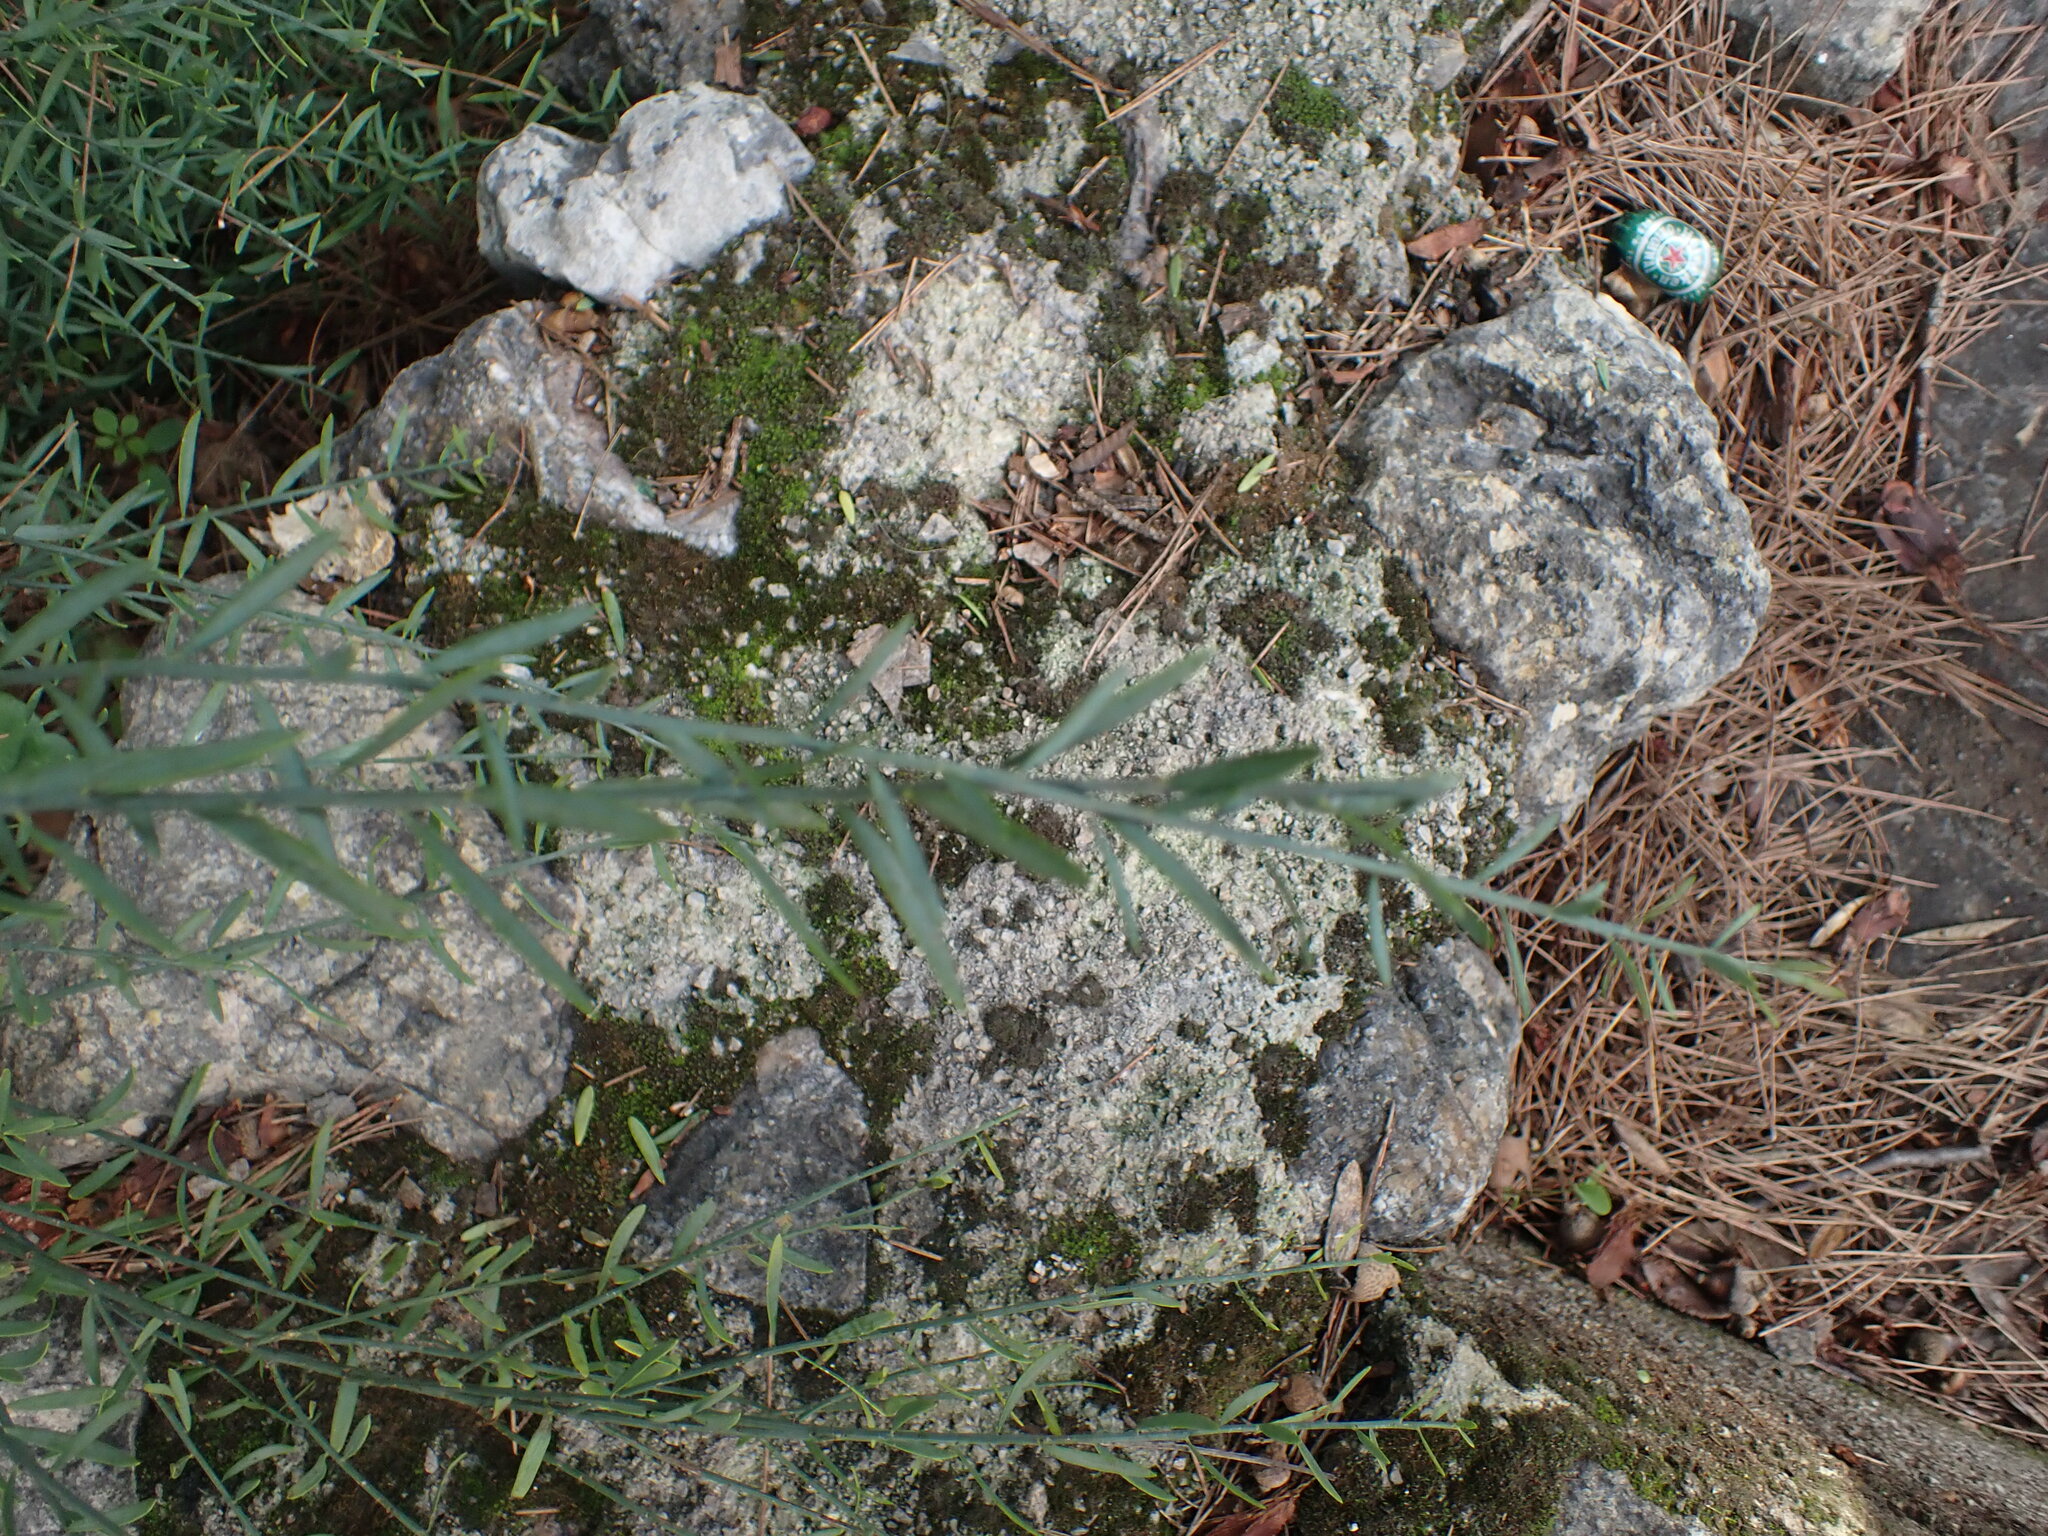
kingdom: Plantae
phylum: Tracheophyta
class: Magnoliopsida
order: Santalales
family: Santalaceae
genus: Osyris
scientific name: Osyris alba
